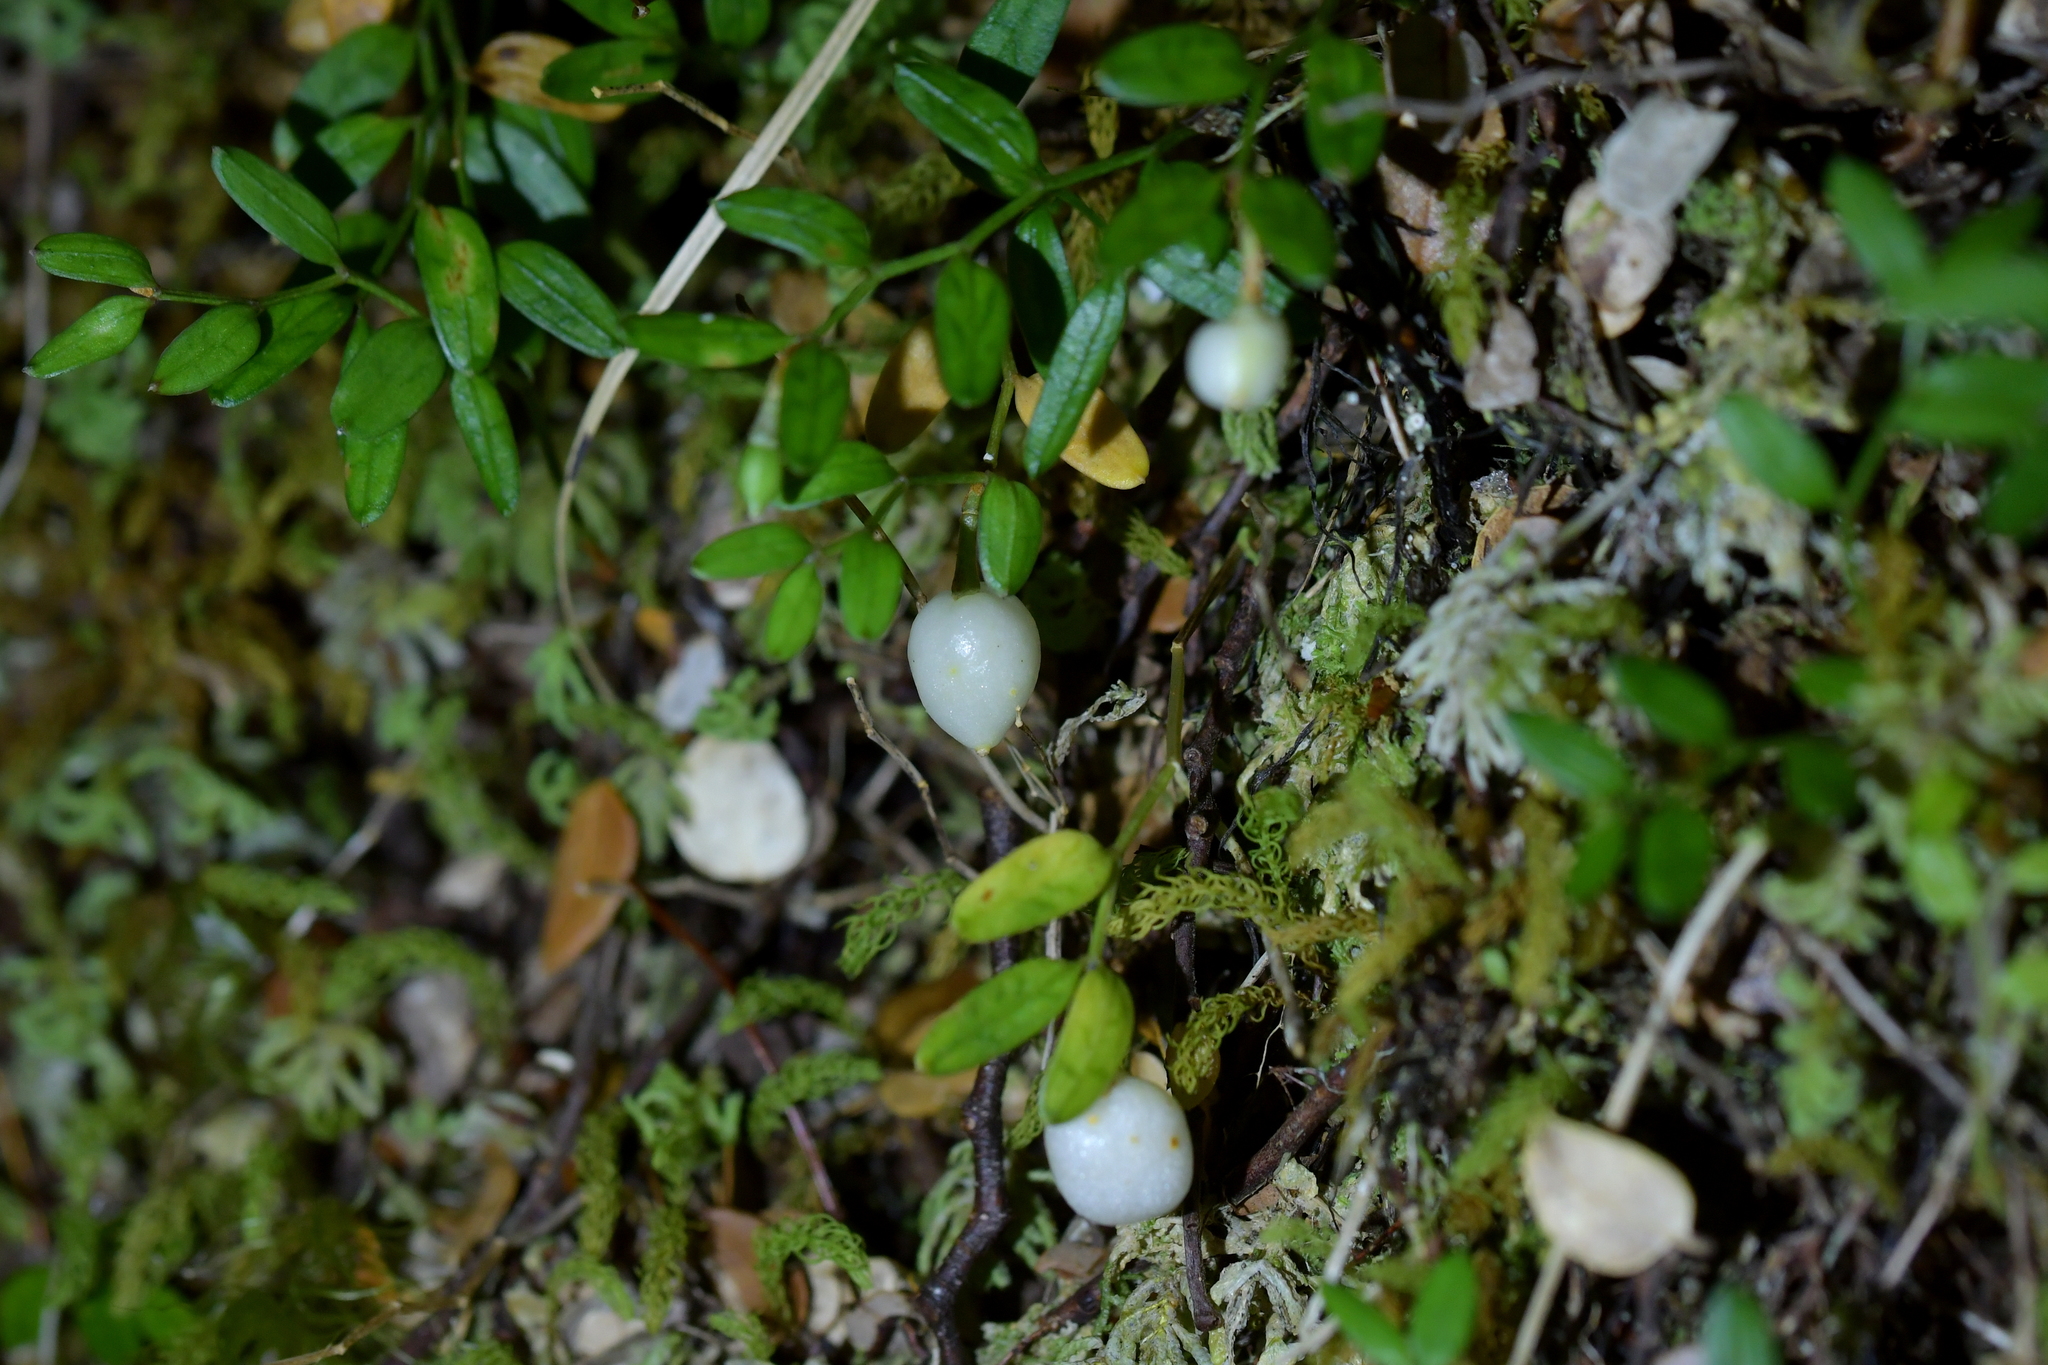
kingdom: Plantae
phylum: Tracheophyta
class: Liliopsida
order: Liliales
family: Alstroemeriaceae
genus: Luzuriaga
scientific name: Luzuriaga parviflora
